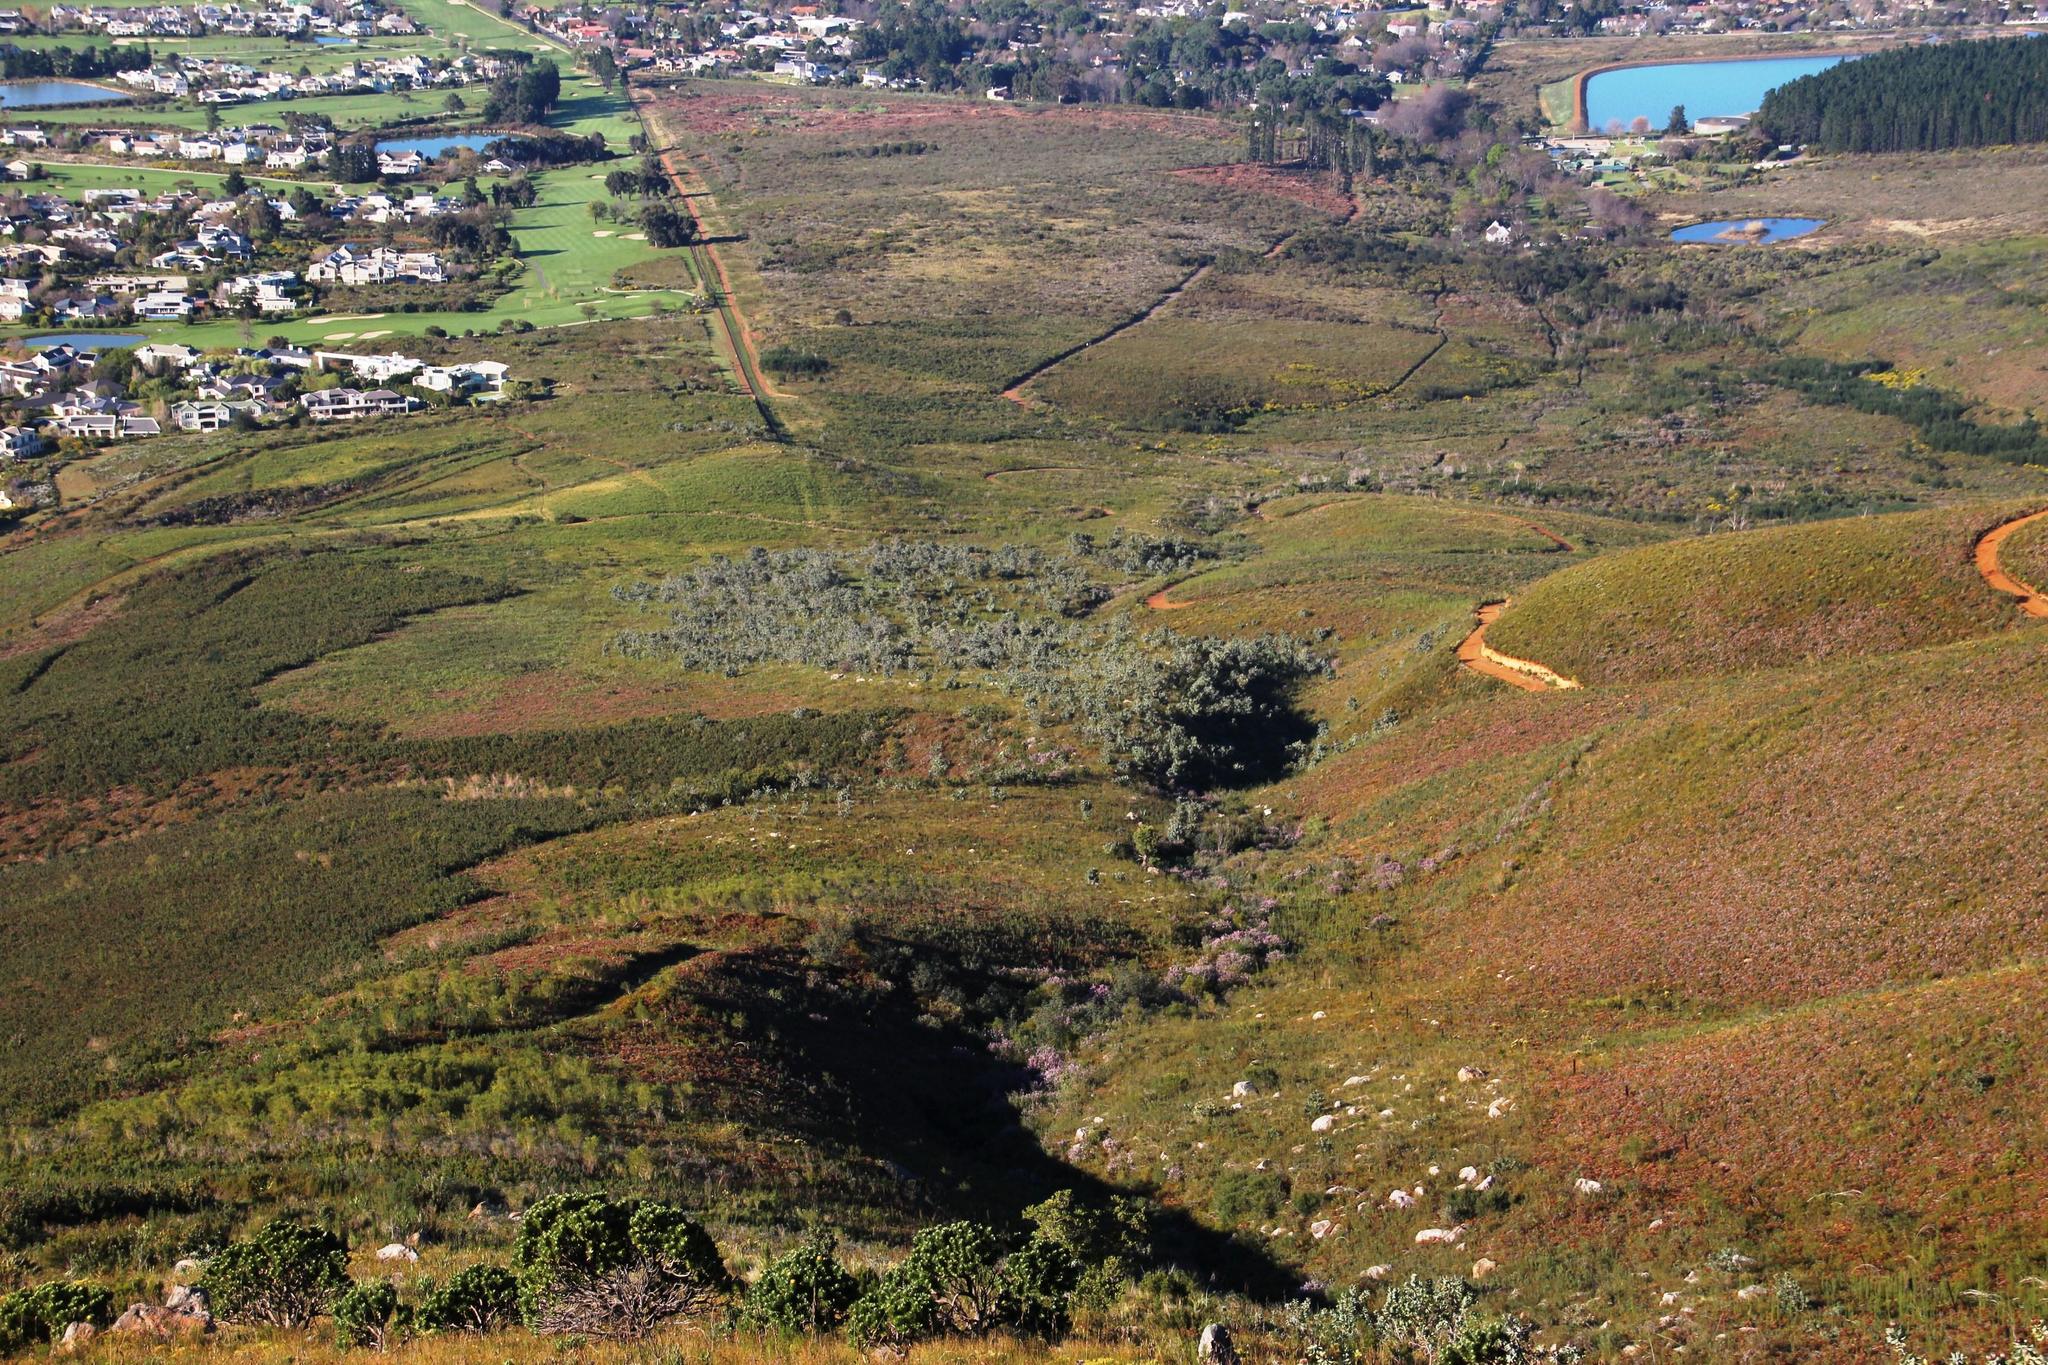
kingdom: Plantae
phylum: Tracheophyta
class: Magnoliopsida
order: Proteales
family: Proteaceae
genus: Protea
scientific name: Protea nitida
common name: Tree protea
